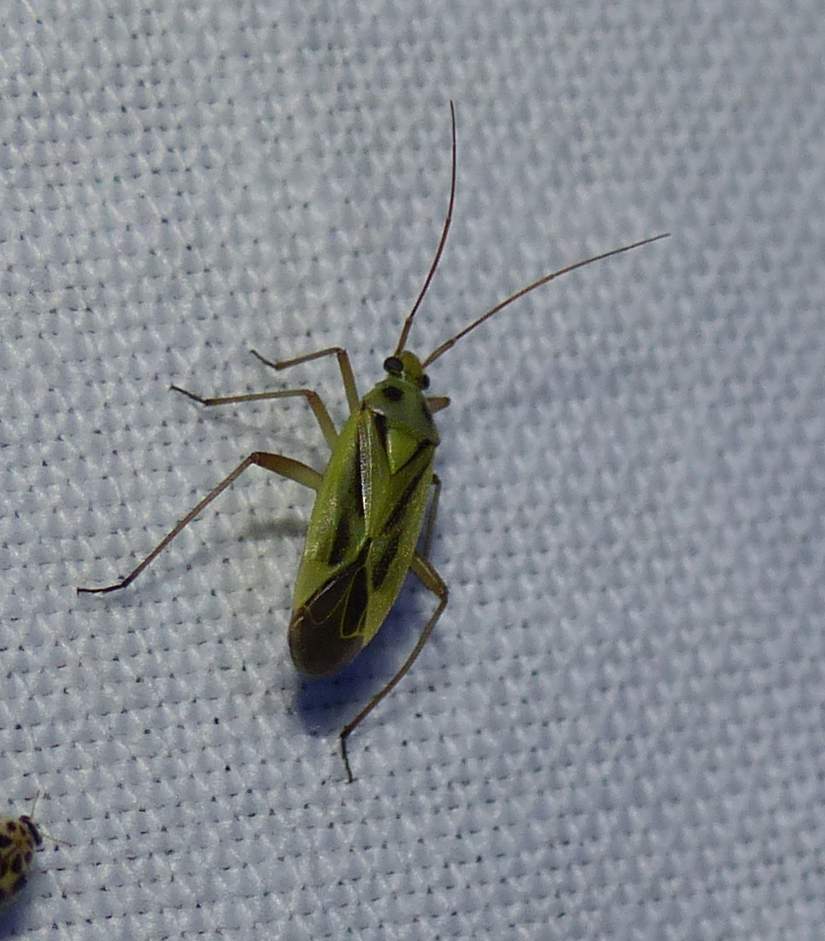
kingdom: Animalia
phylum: Arthropoda
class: Insecta
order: Hemiptera
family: Miridae
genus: Stenotus
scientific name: Stenotus binotatus
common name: Plant bug
